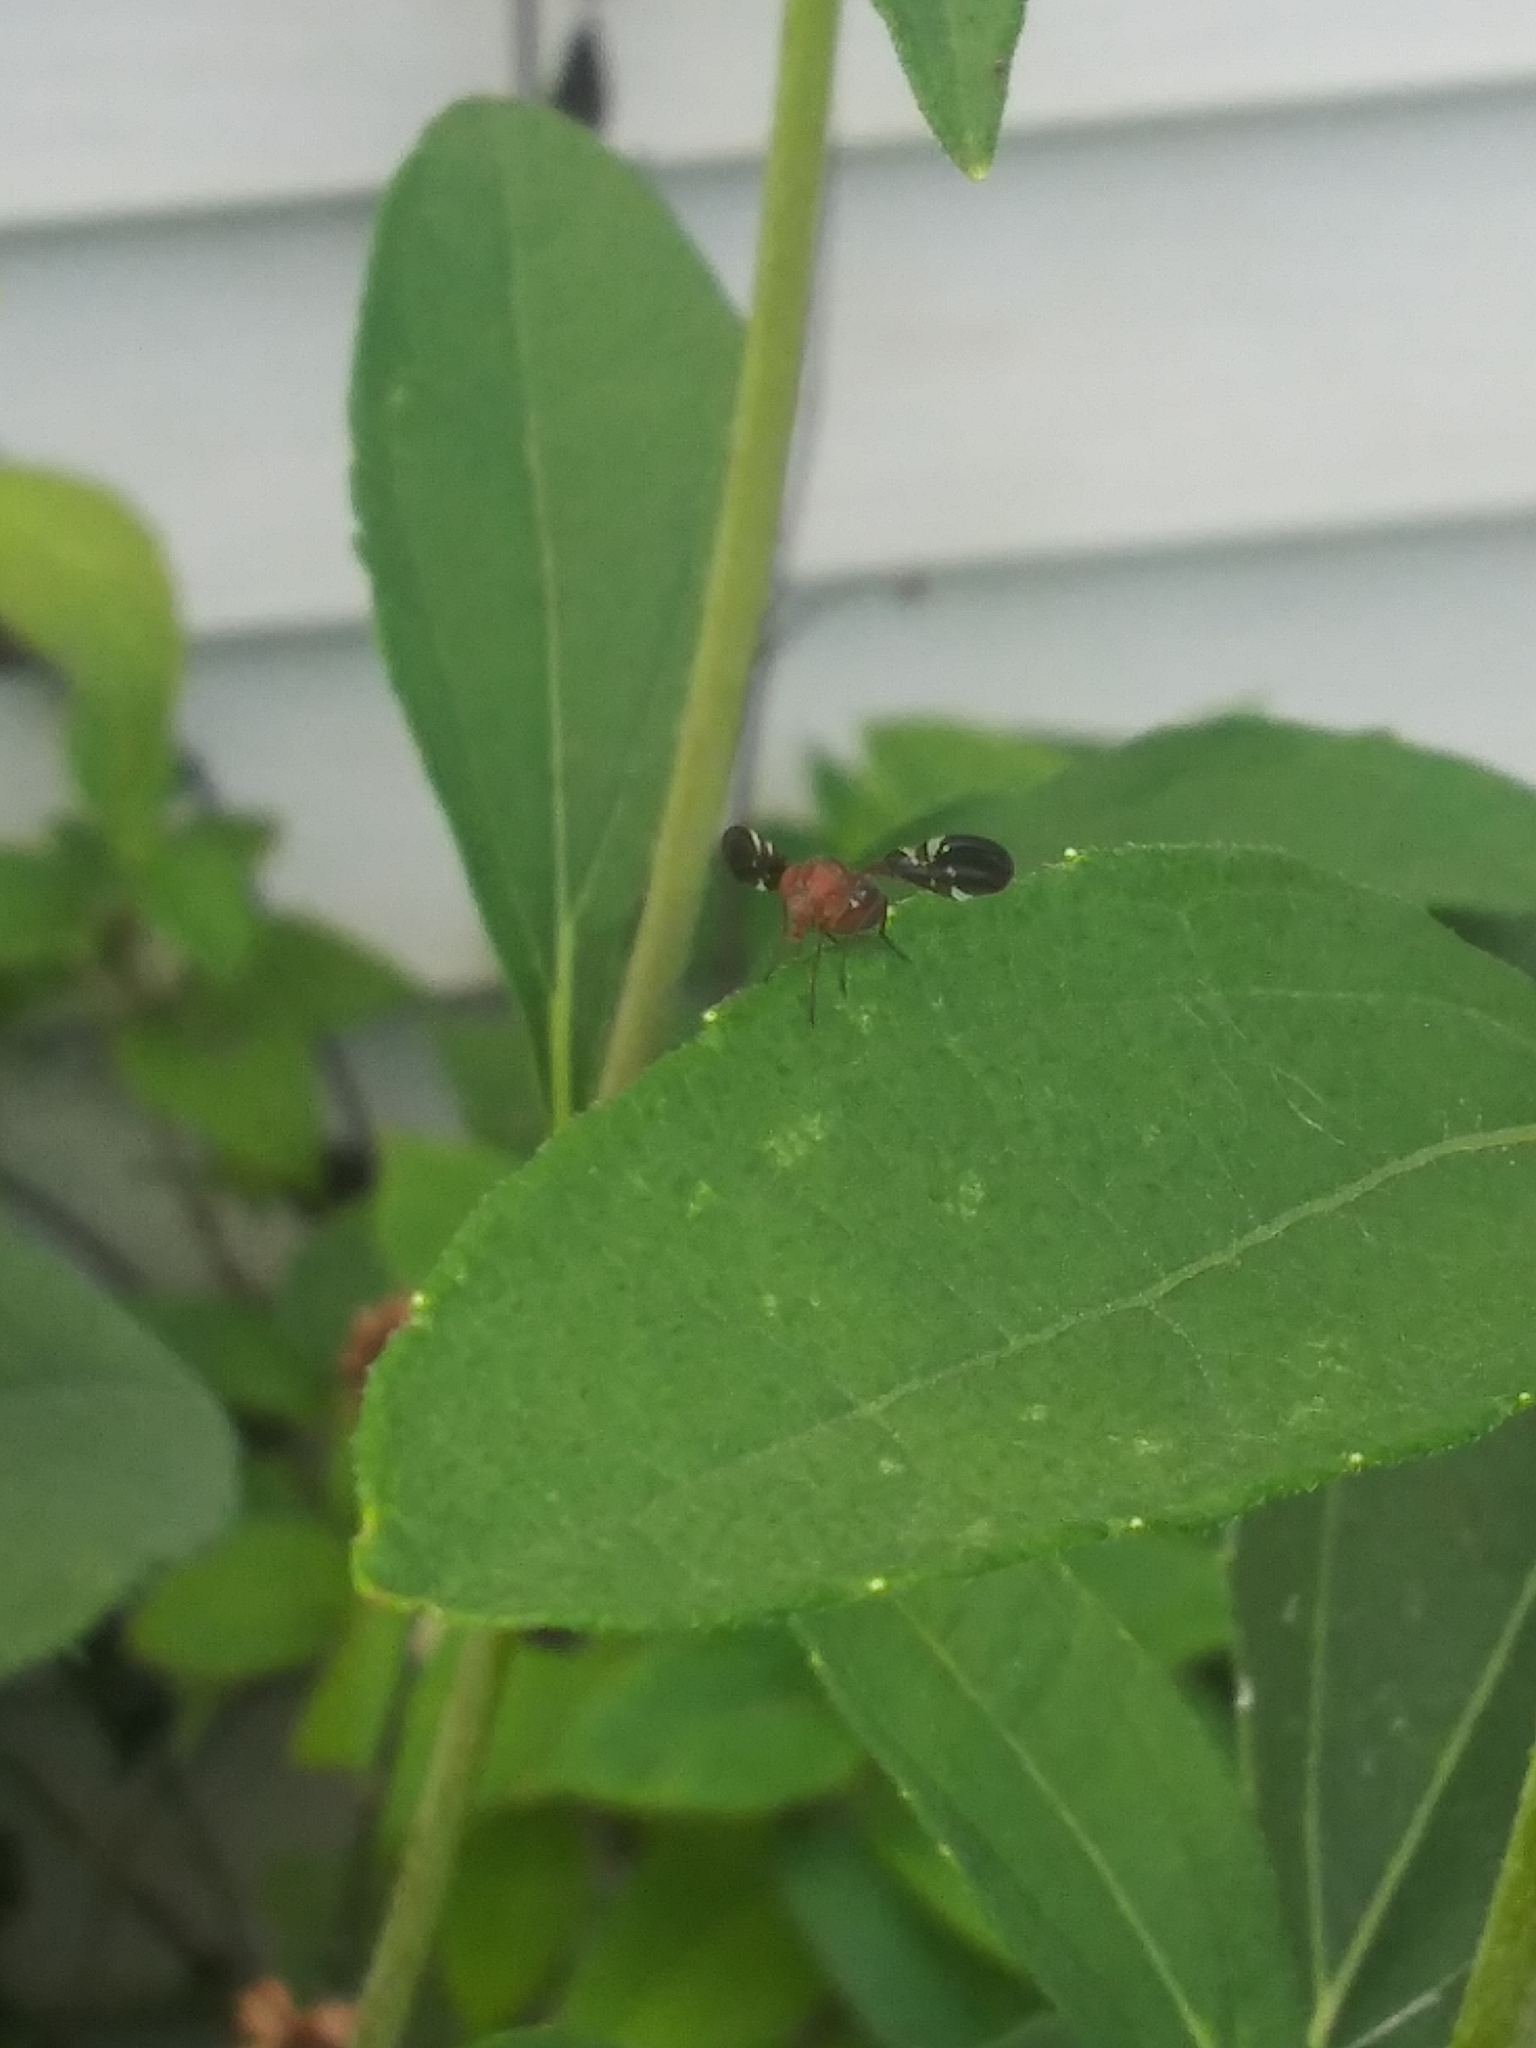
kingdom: Animalia
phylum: Arthropoda
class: Insecta
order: Diptera
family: Ulidiidae
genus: Delphinia
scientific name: Delphinia picta
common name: Common picture-winged fly
